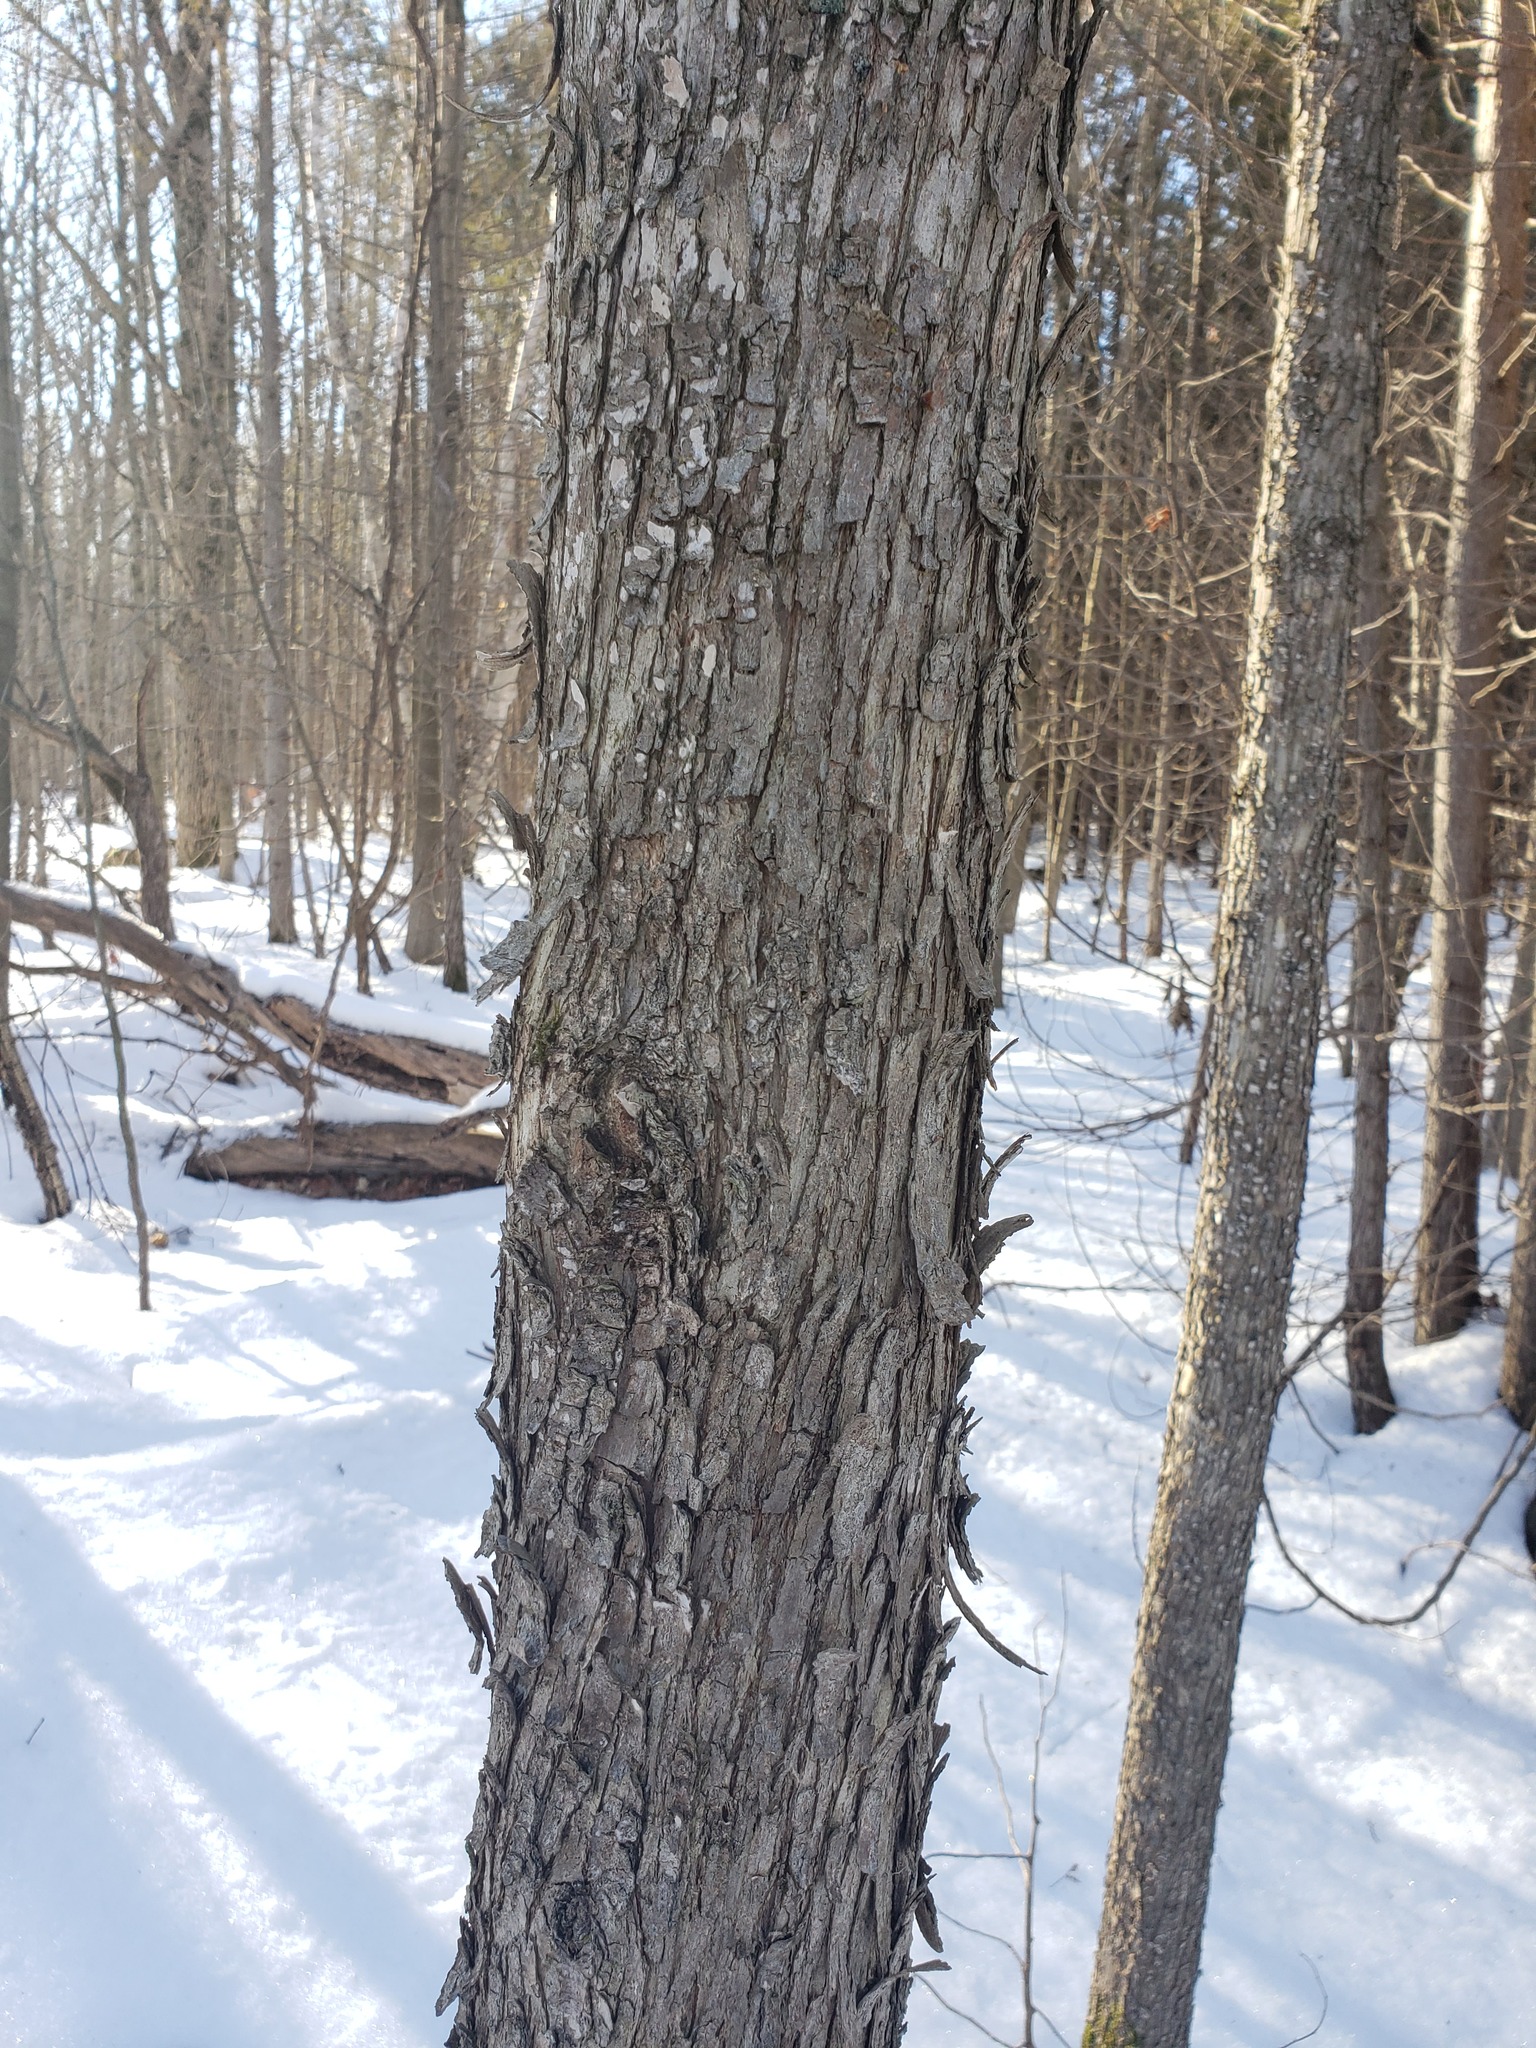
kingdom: Plantae
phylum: Tracheophyta
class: Magnoliopsida
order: Fagales
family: Betulaceae
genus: Ostrya
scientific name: Ostrya virginiana
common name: Ironwood
